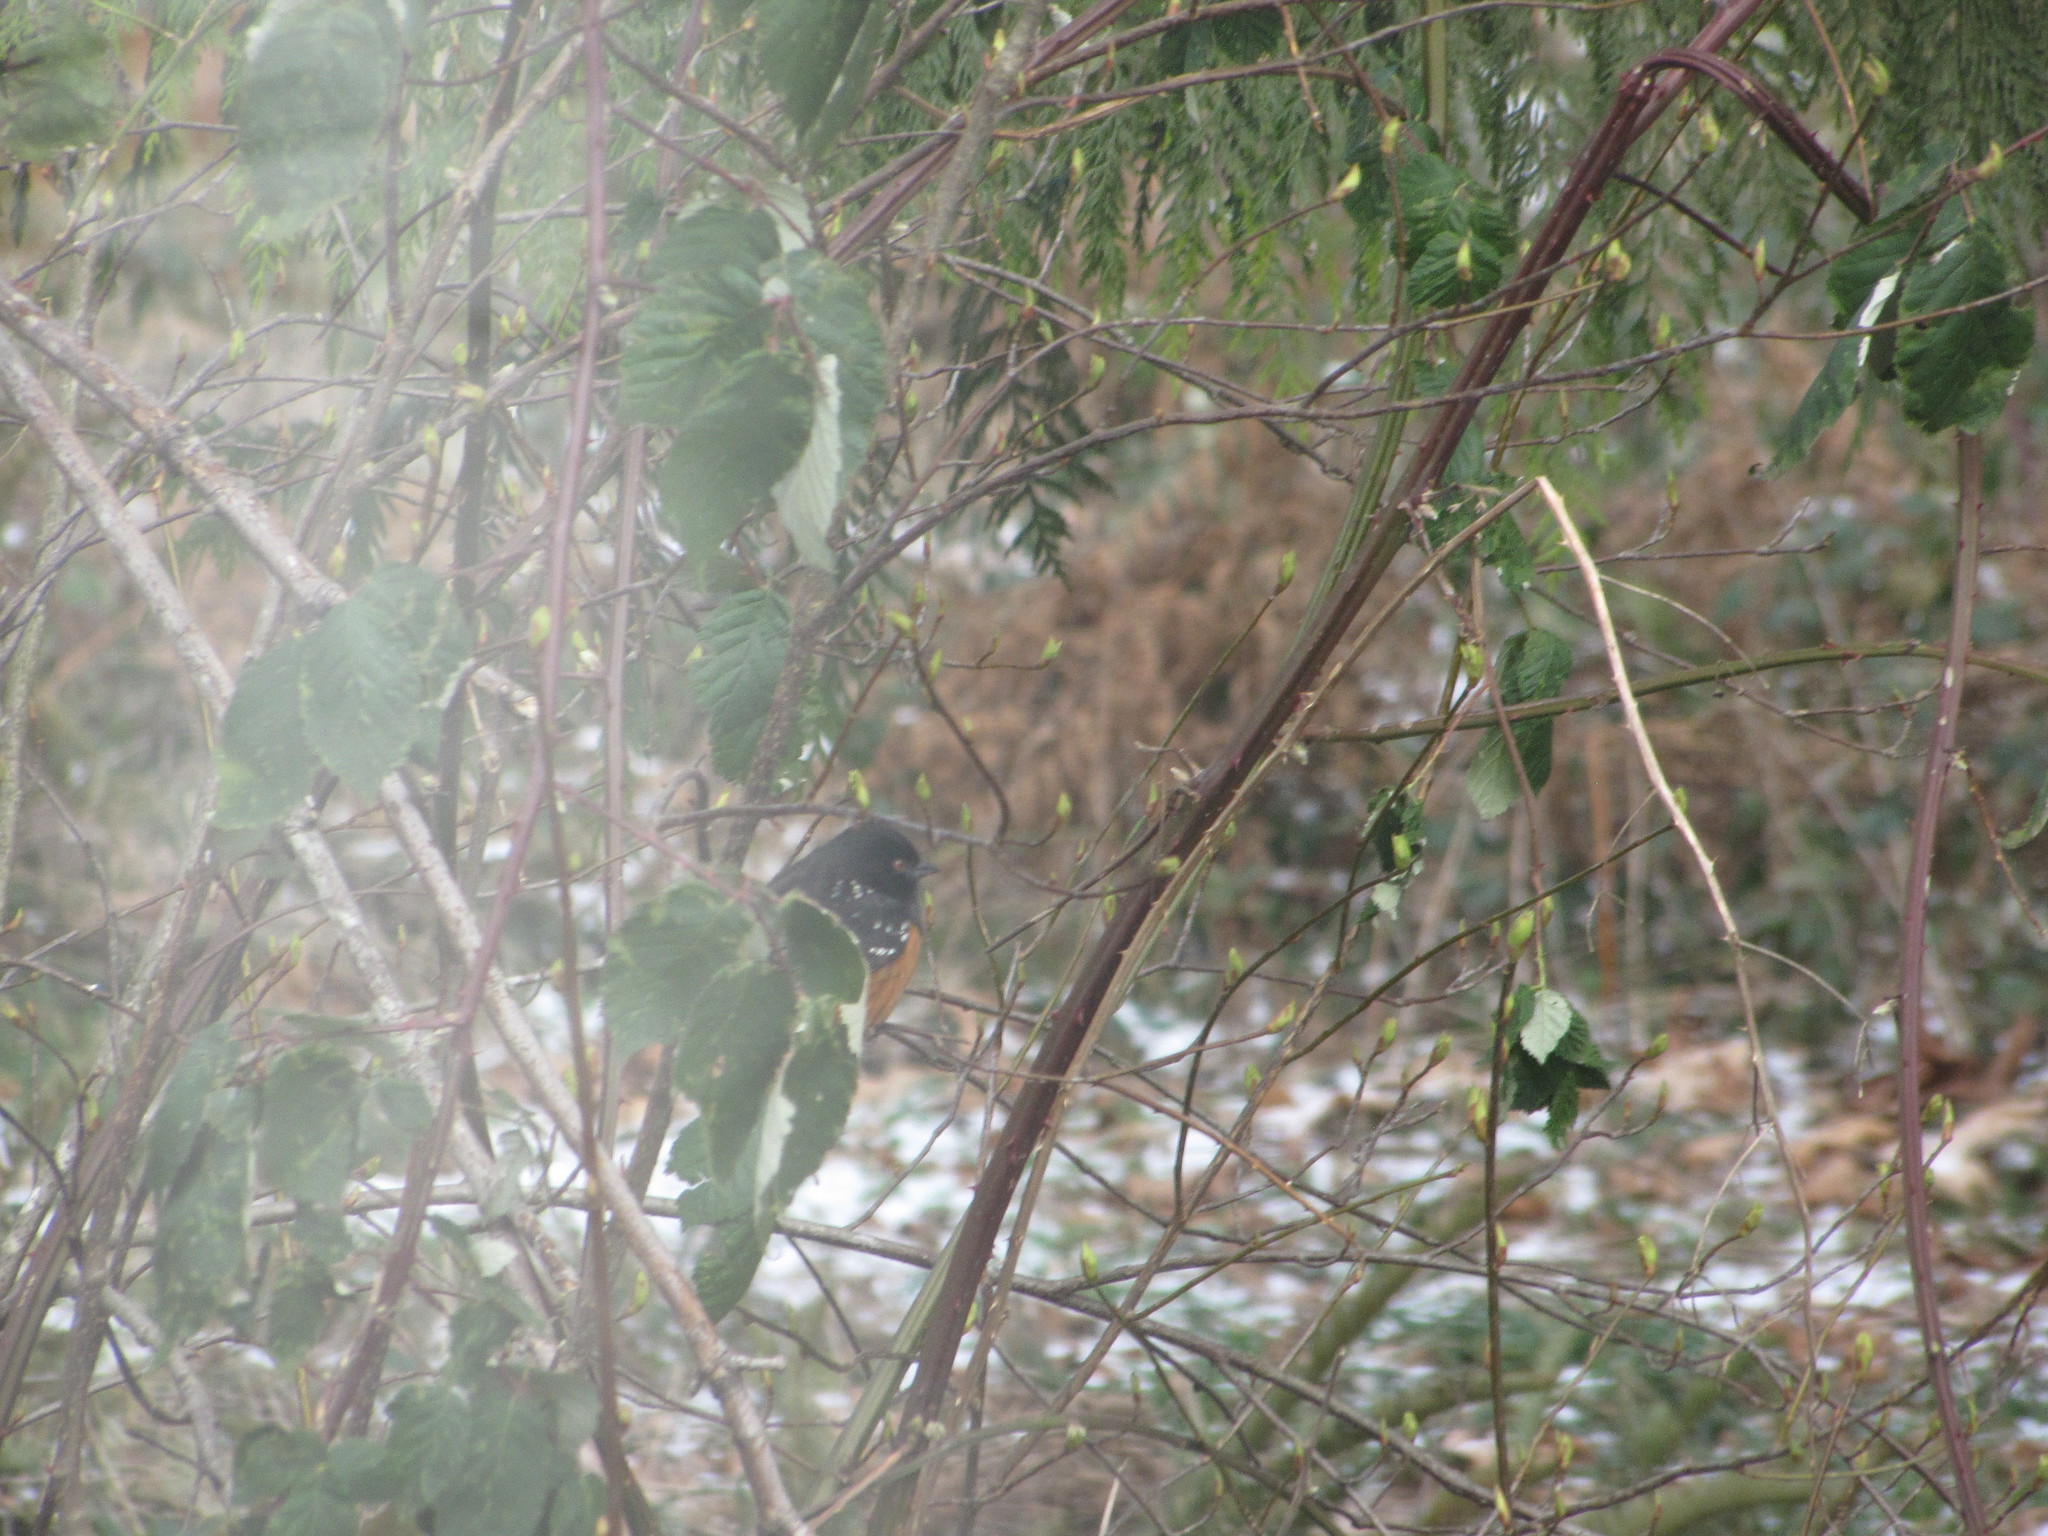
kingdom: Animalia
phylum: Chordata
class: Aves
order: Passeriformes
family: Passerellidae
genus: Pipilo
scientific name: Pipilo maculatus
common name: Spotted towhee
